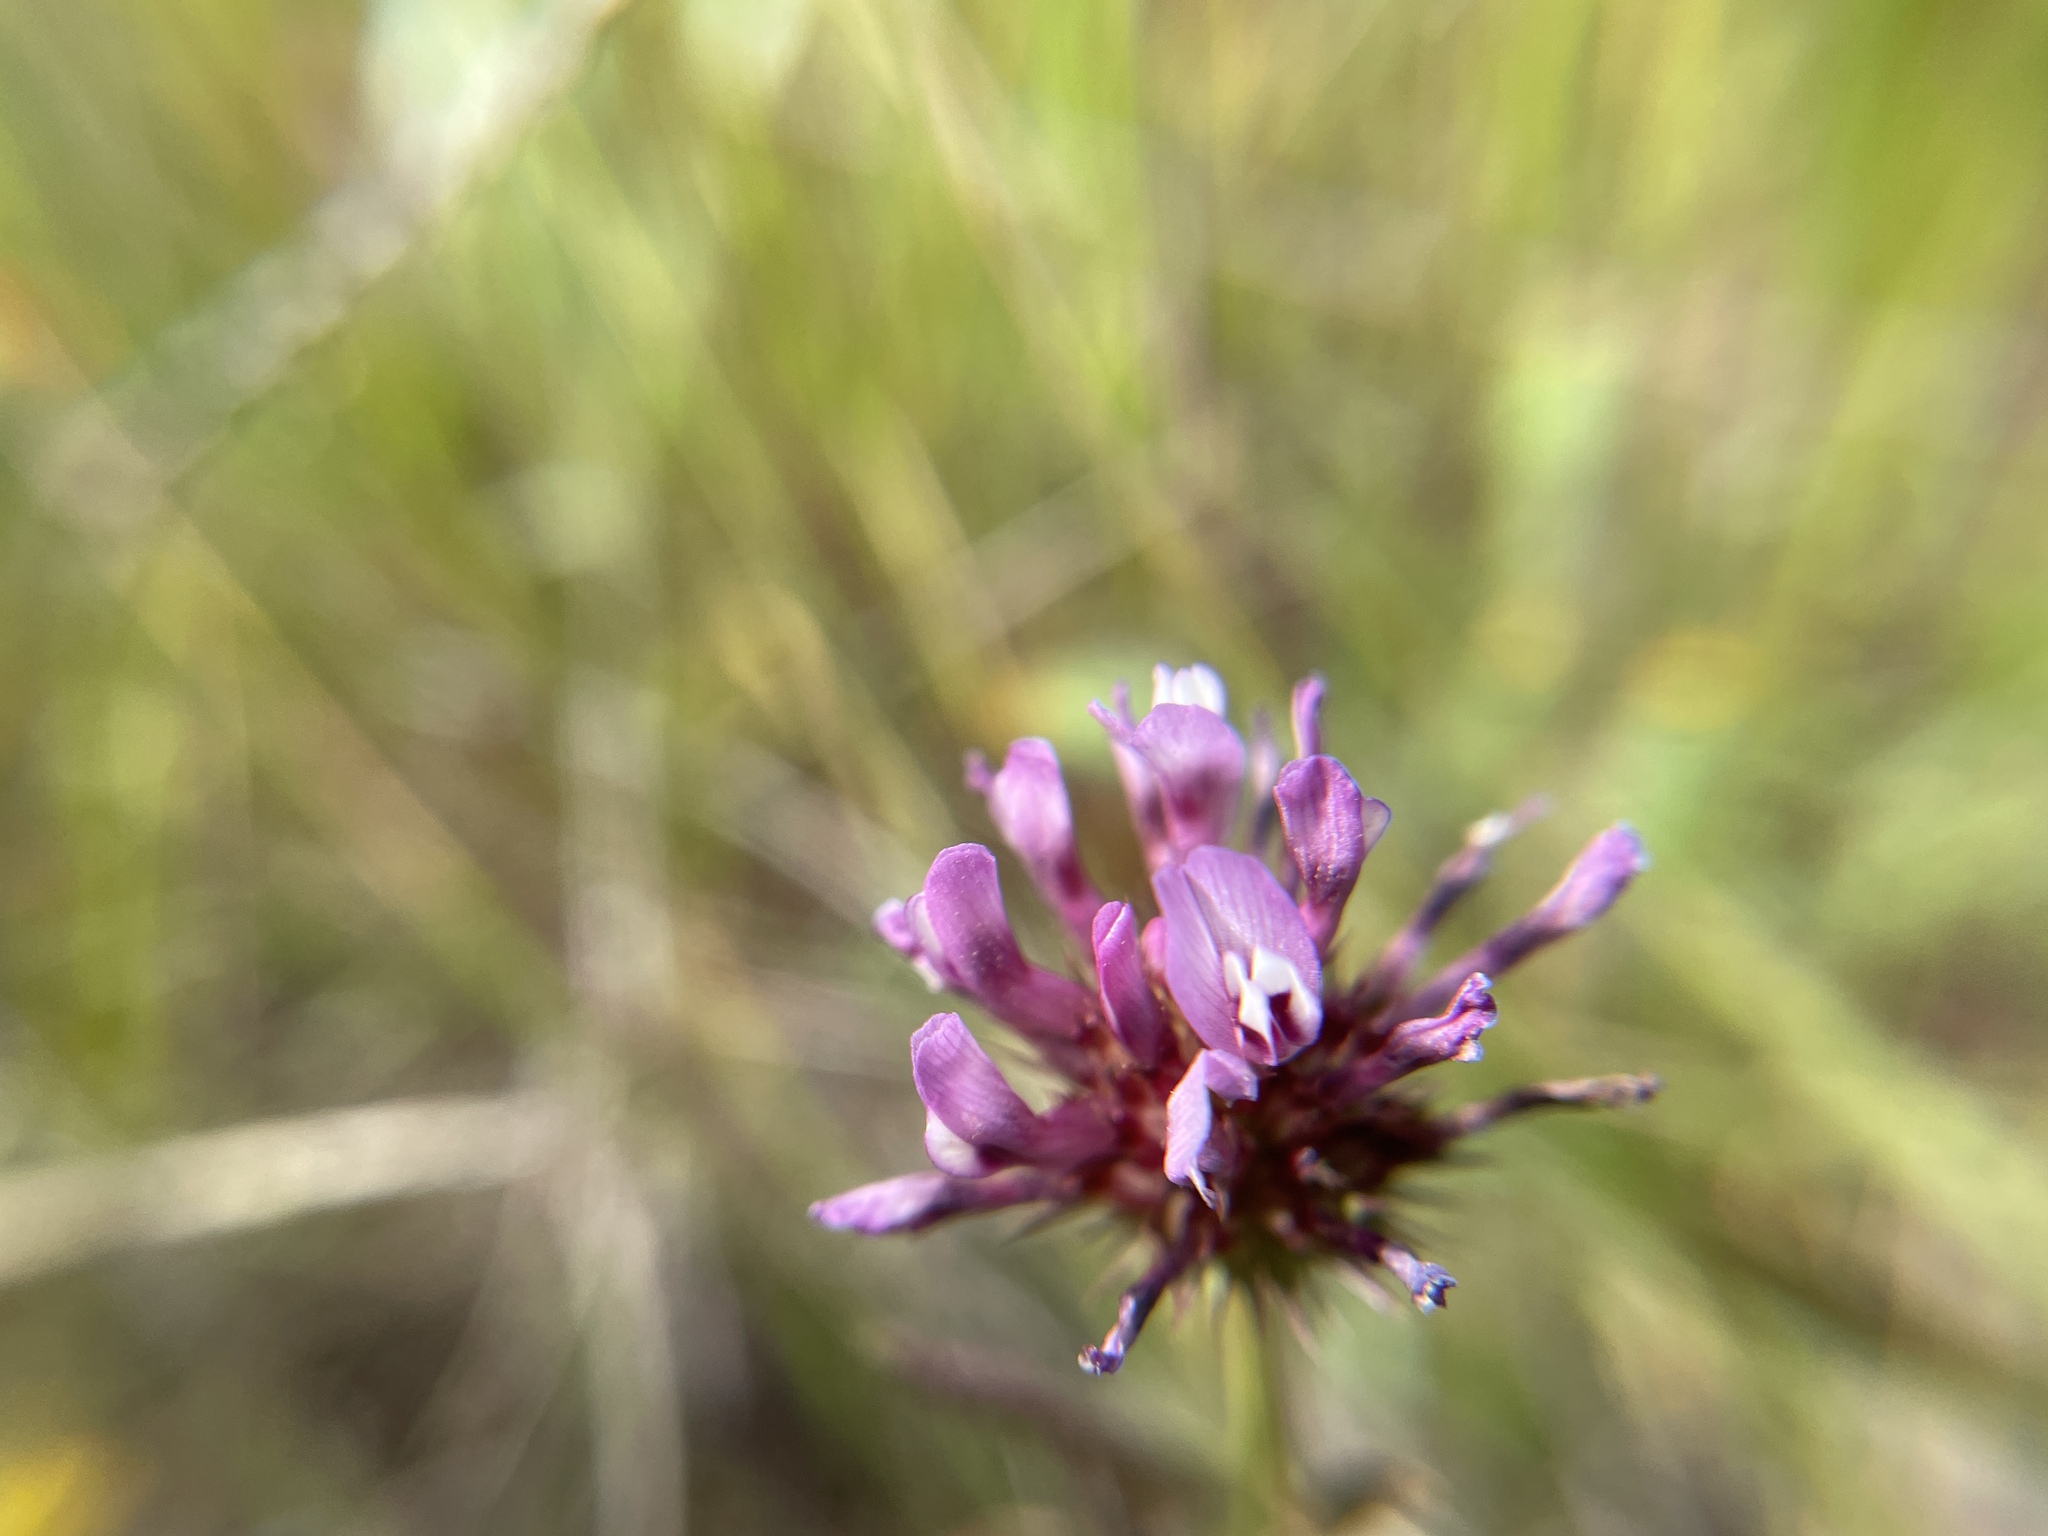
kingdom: Plantae
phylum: Tracheophyta
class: Magnoliopsida
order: Fabales
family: Fabaceae
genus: Trifolium
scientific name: Trifolium willdenovii
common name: Tomcat clover
